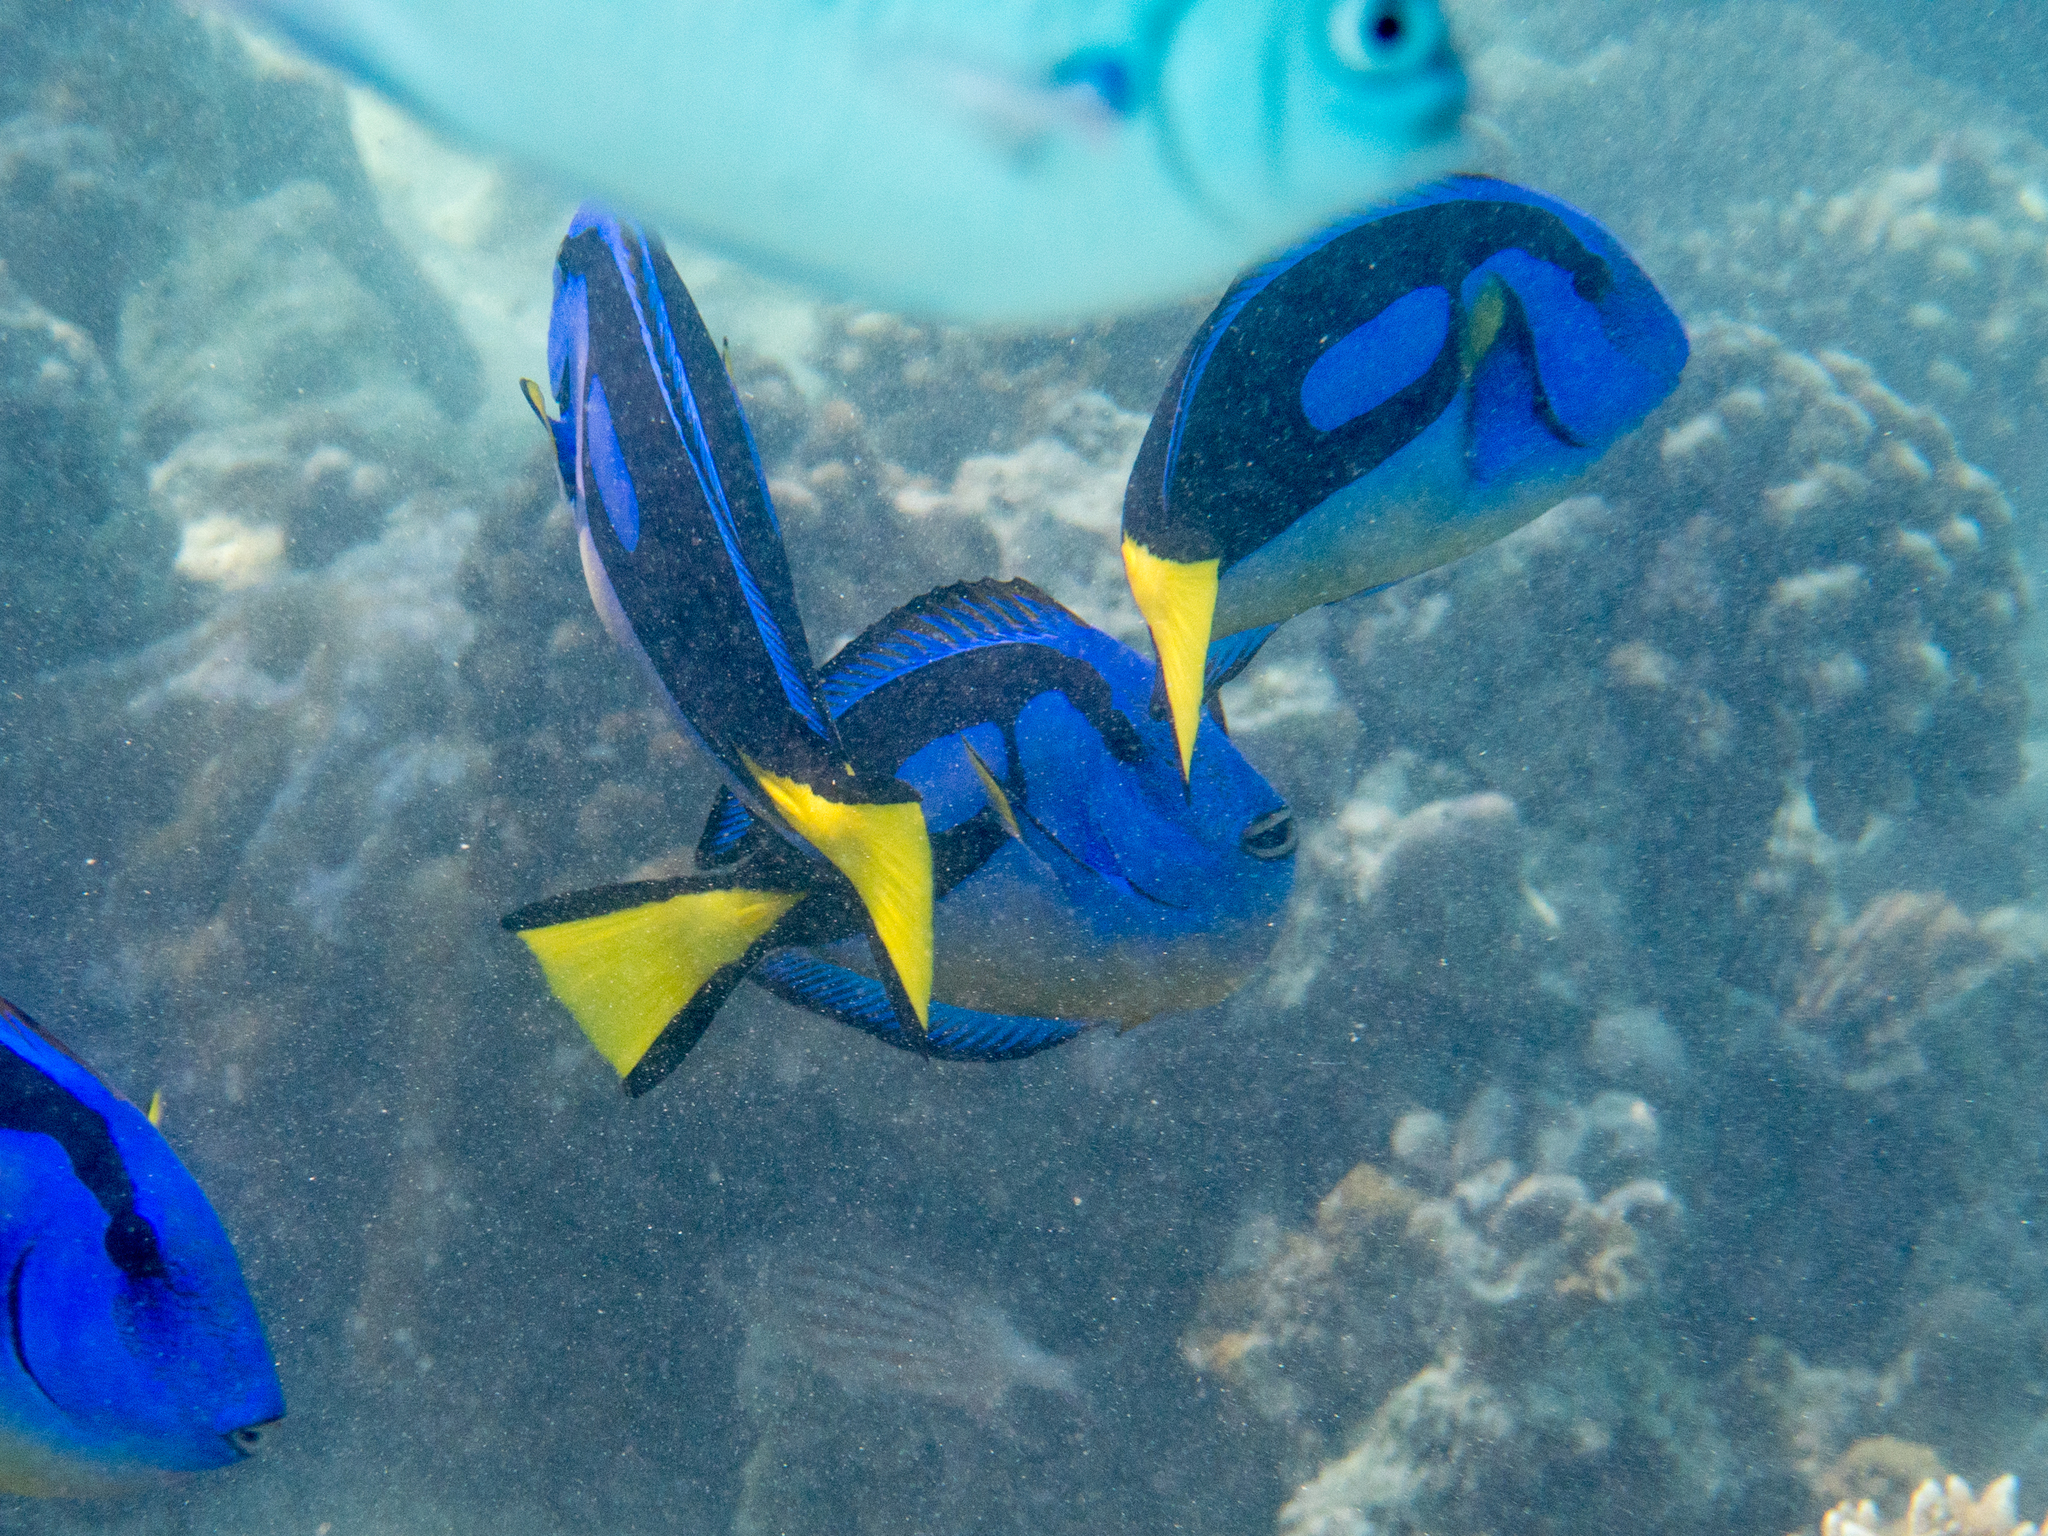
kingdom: Animalia
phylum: Chordata
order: Perciformes
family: Acanthuridae
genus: Paracanthurus
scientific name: Paracanthurus hepatus
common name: Palette surgeonfish
